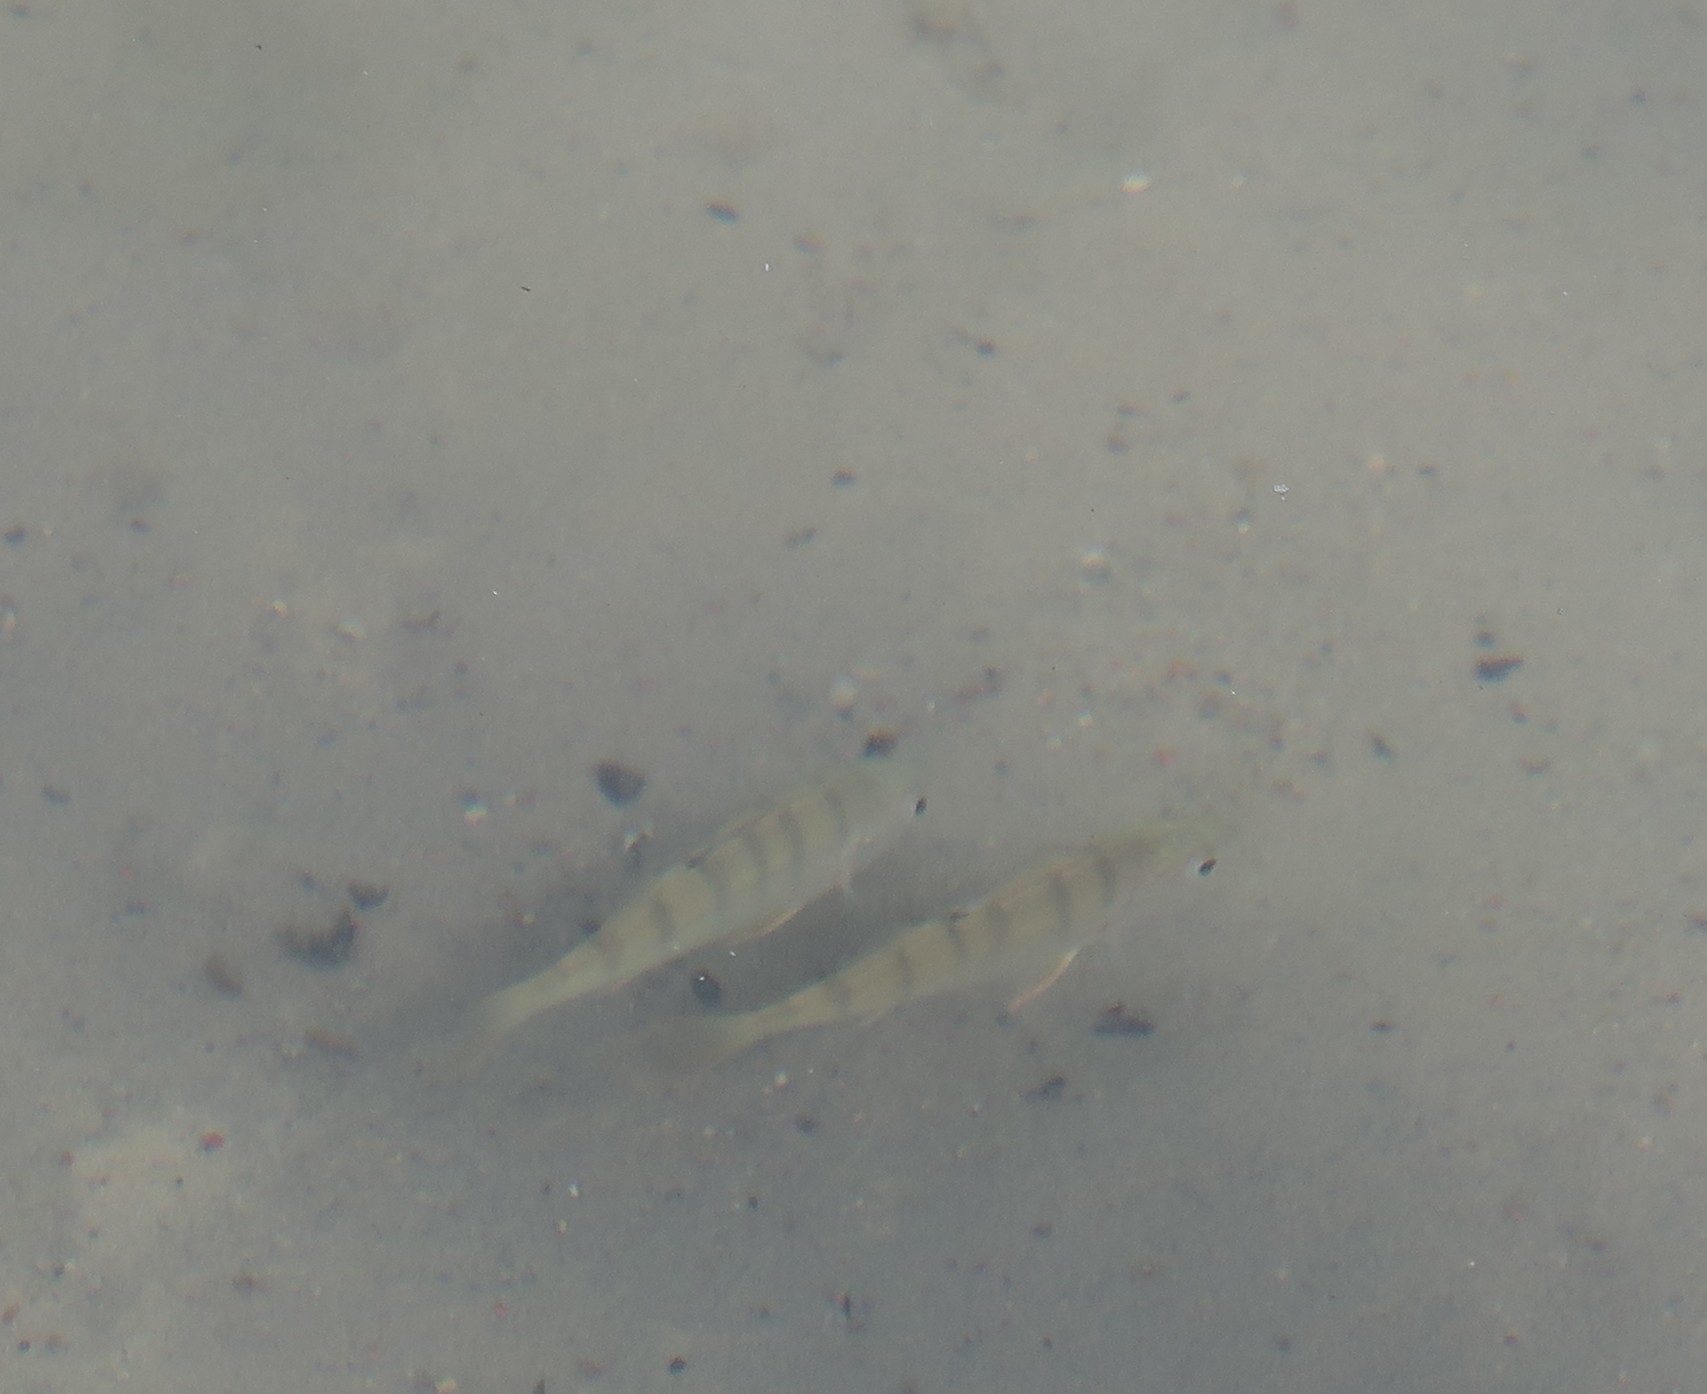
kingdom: Animalia
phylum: Chordata
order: Perciformes
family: Percidae
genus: Perca
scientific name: Perca fluviatilis
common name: Perch
